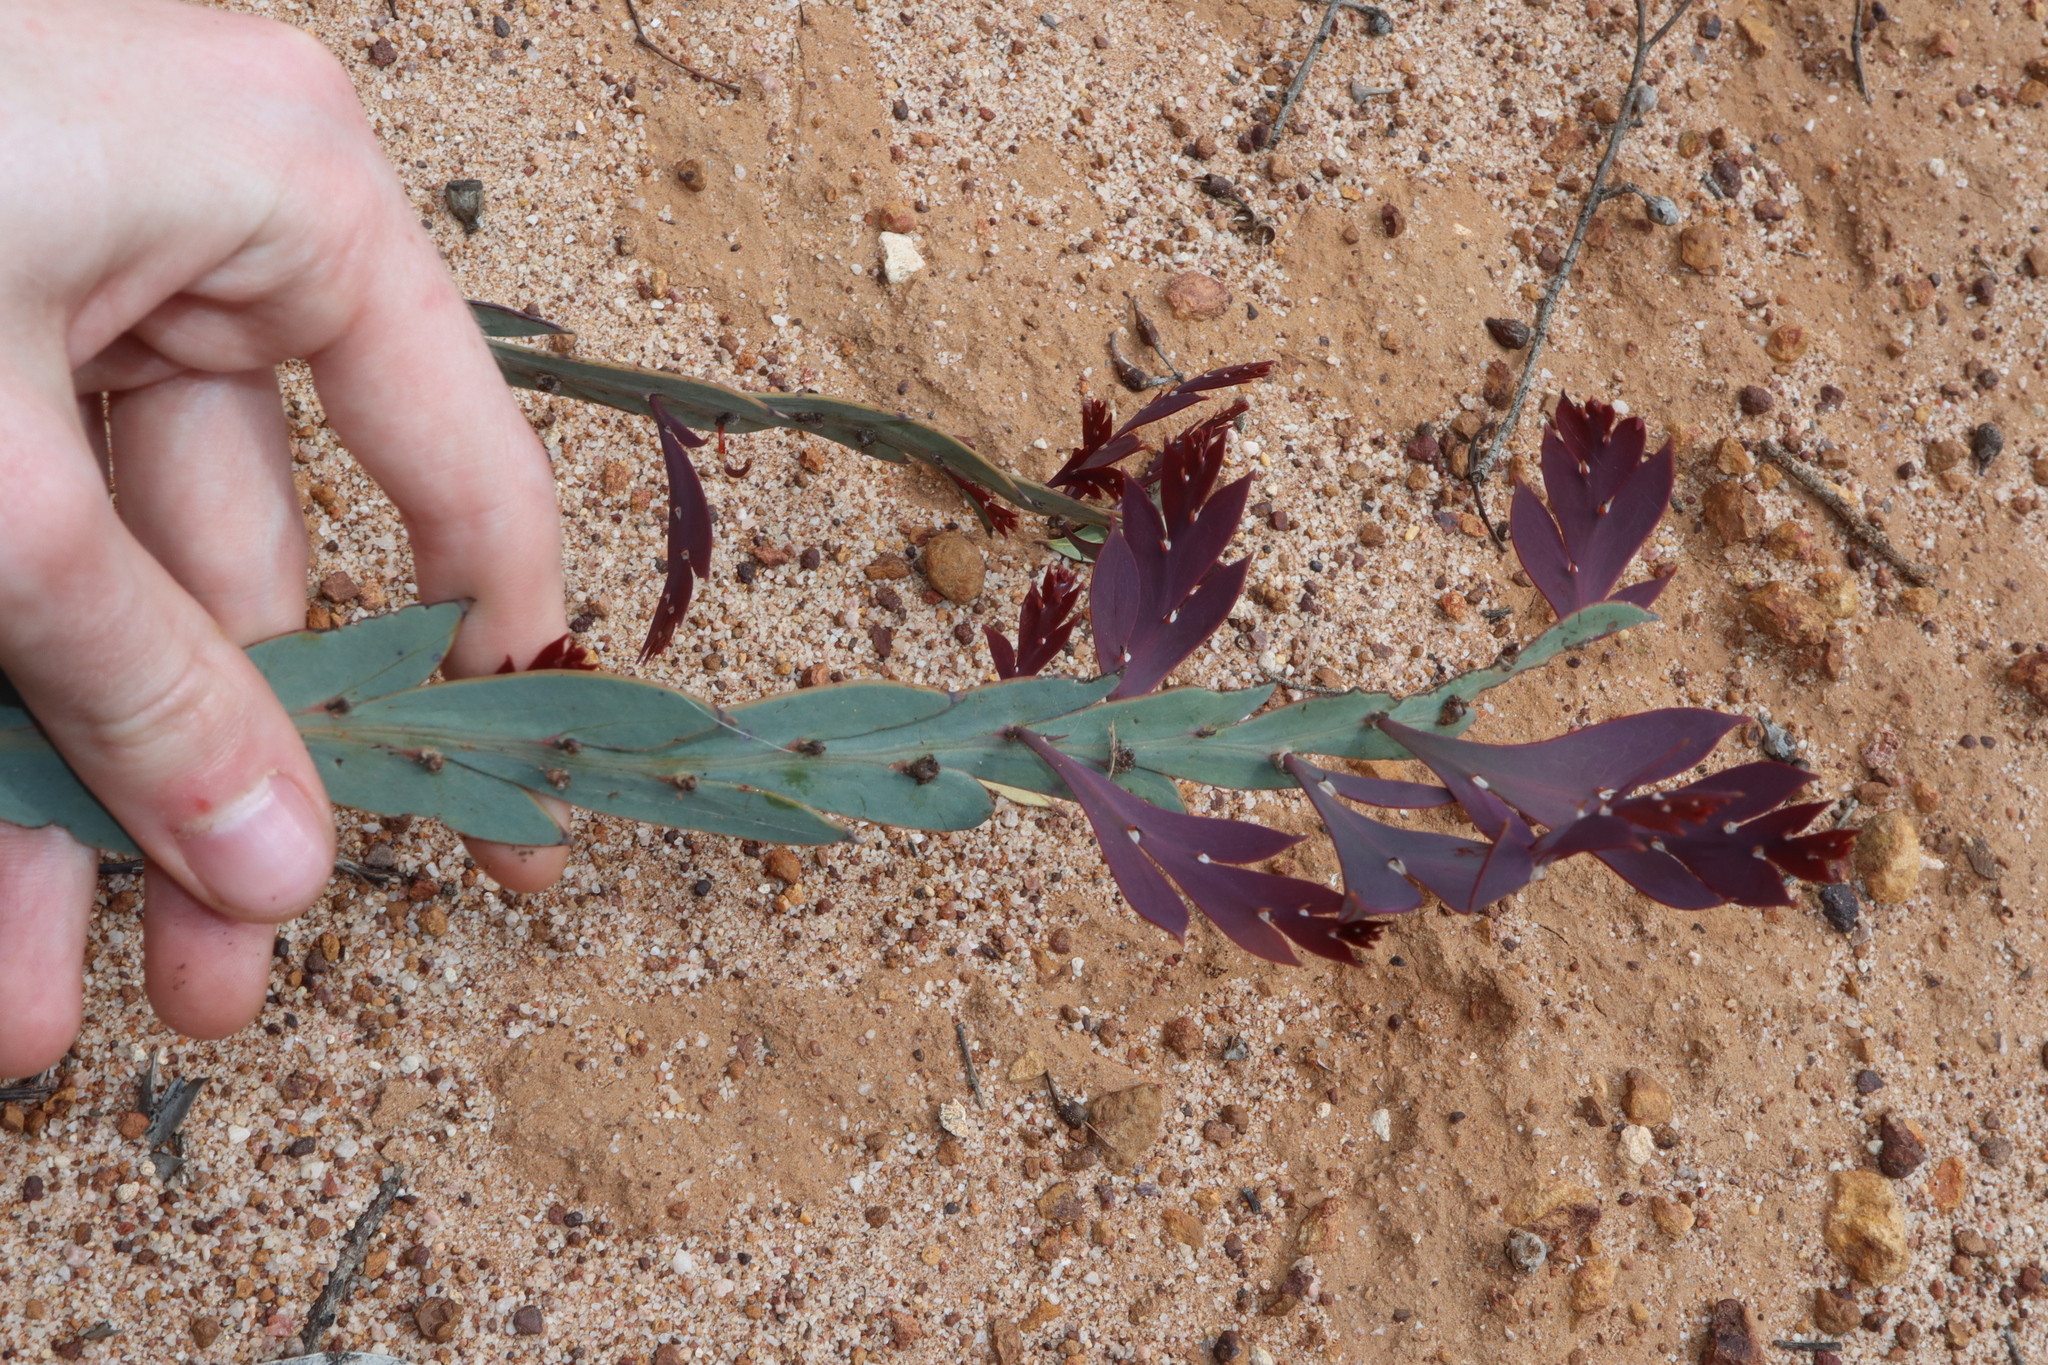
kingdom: Plantae
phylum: Tracheophyta
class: Magnoliopsida
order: Fabales
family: Fabaceae
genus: Acacia
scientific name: Acacia glaucoptera
